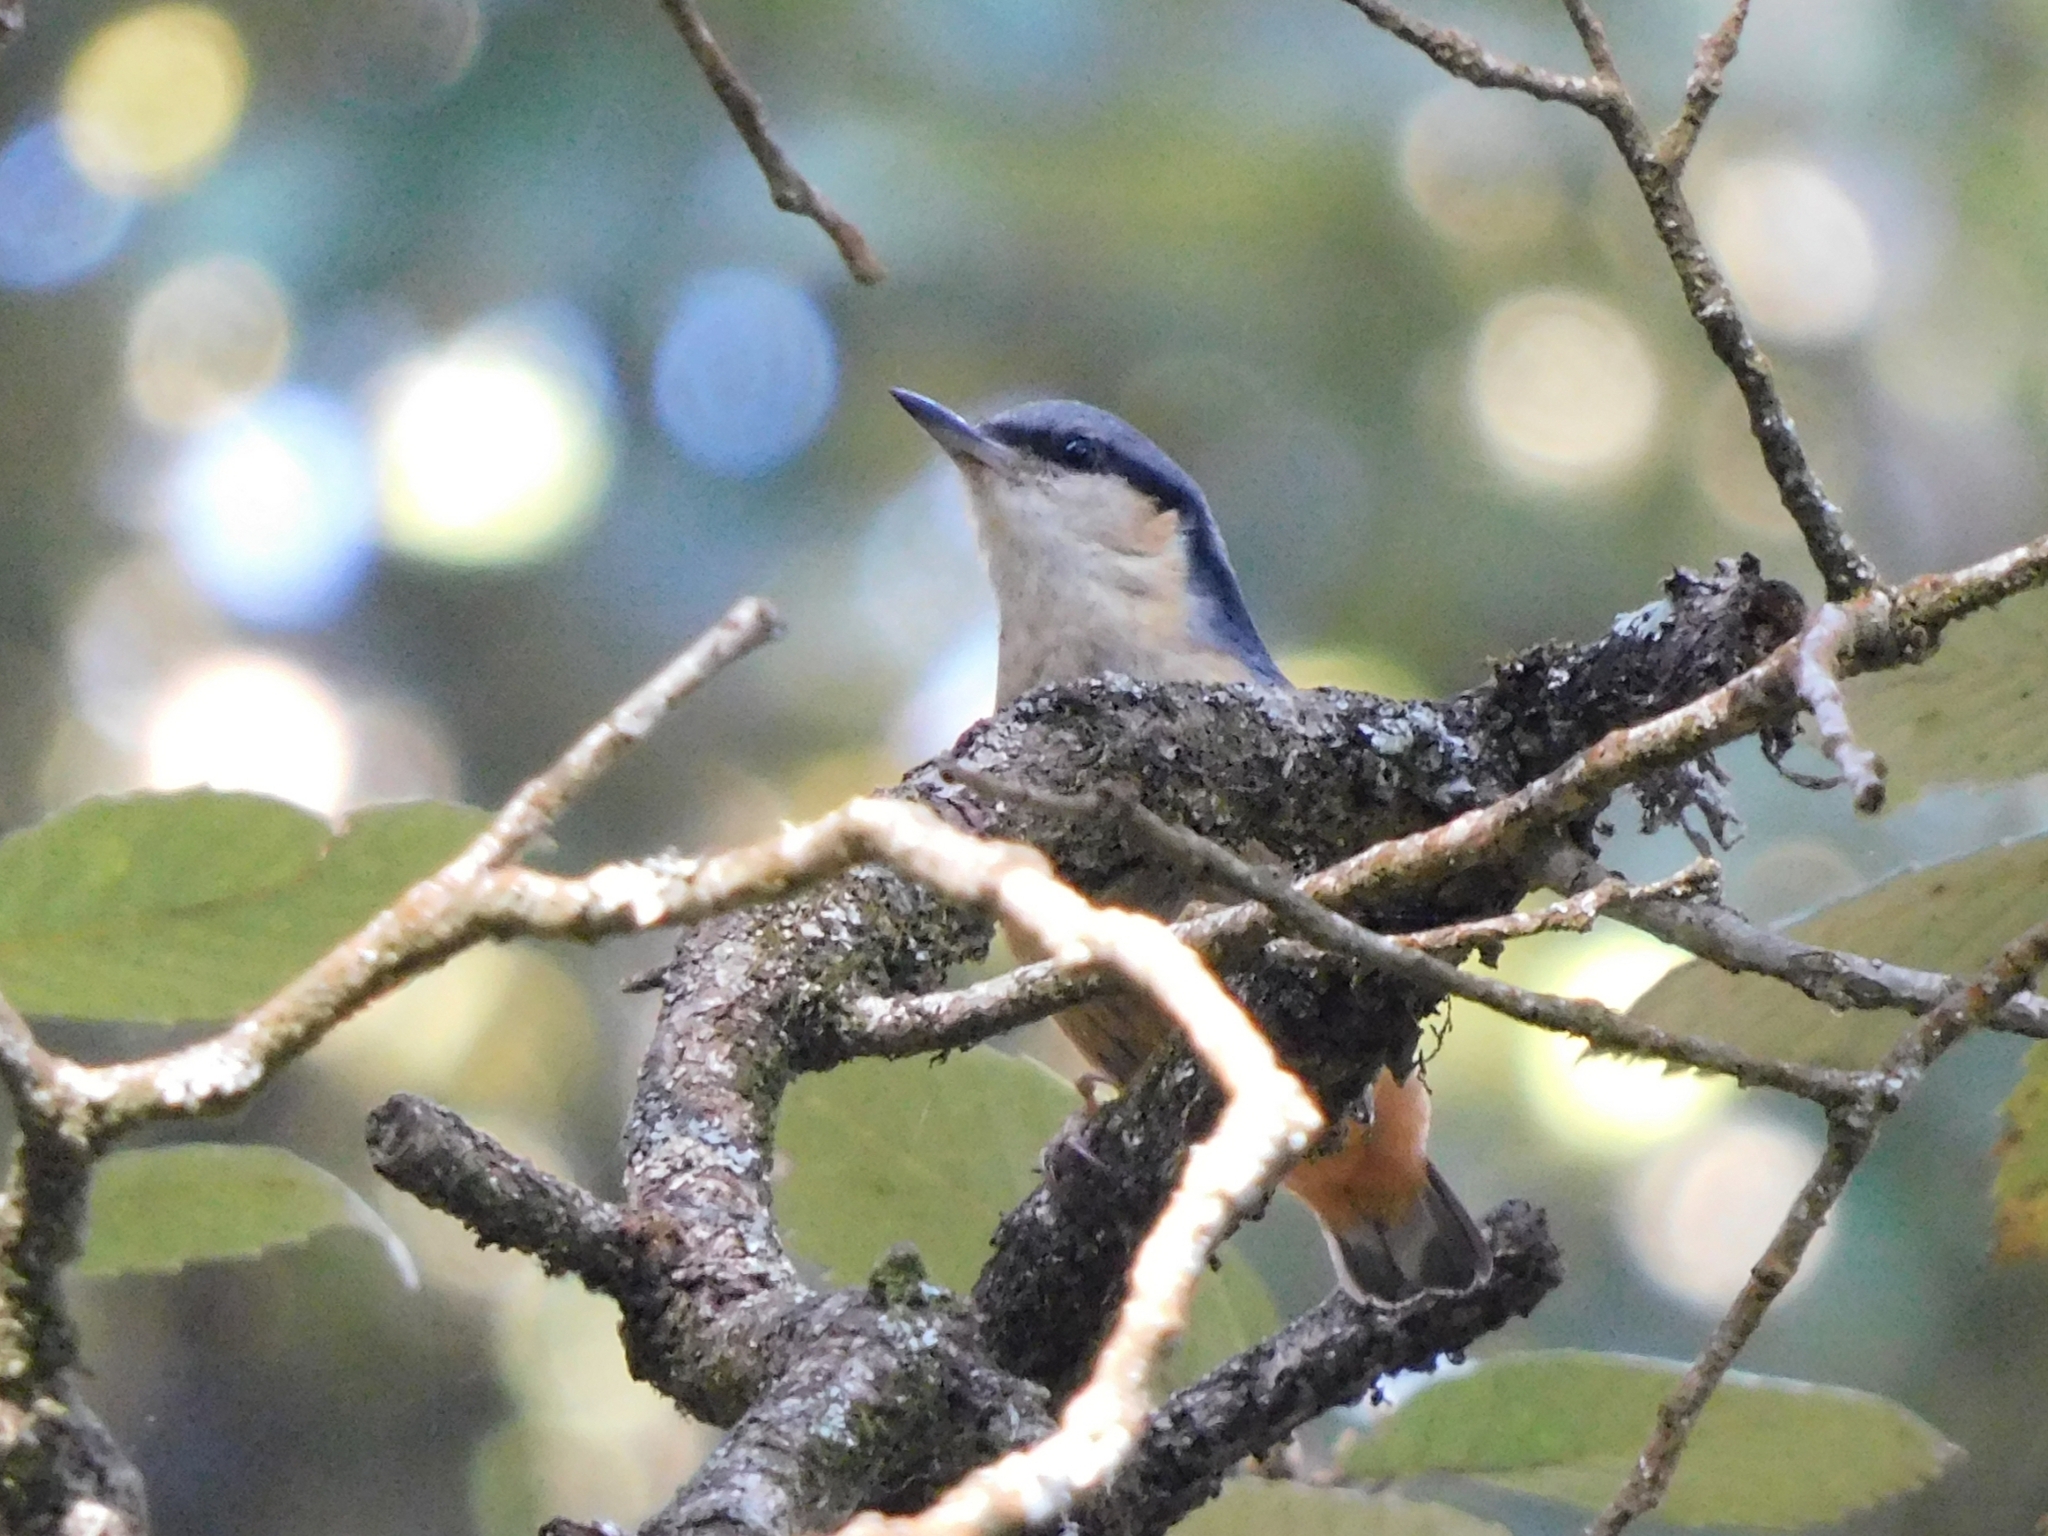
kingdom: Animalia
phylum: Chordata
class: Aves
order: Passeriformes
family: Sittidae
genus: Sitta
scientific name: Sitta himalayensis
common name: White-tailed nuthatch
